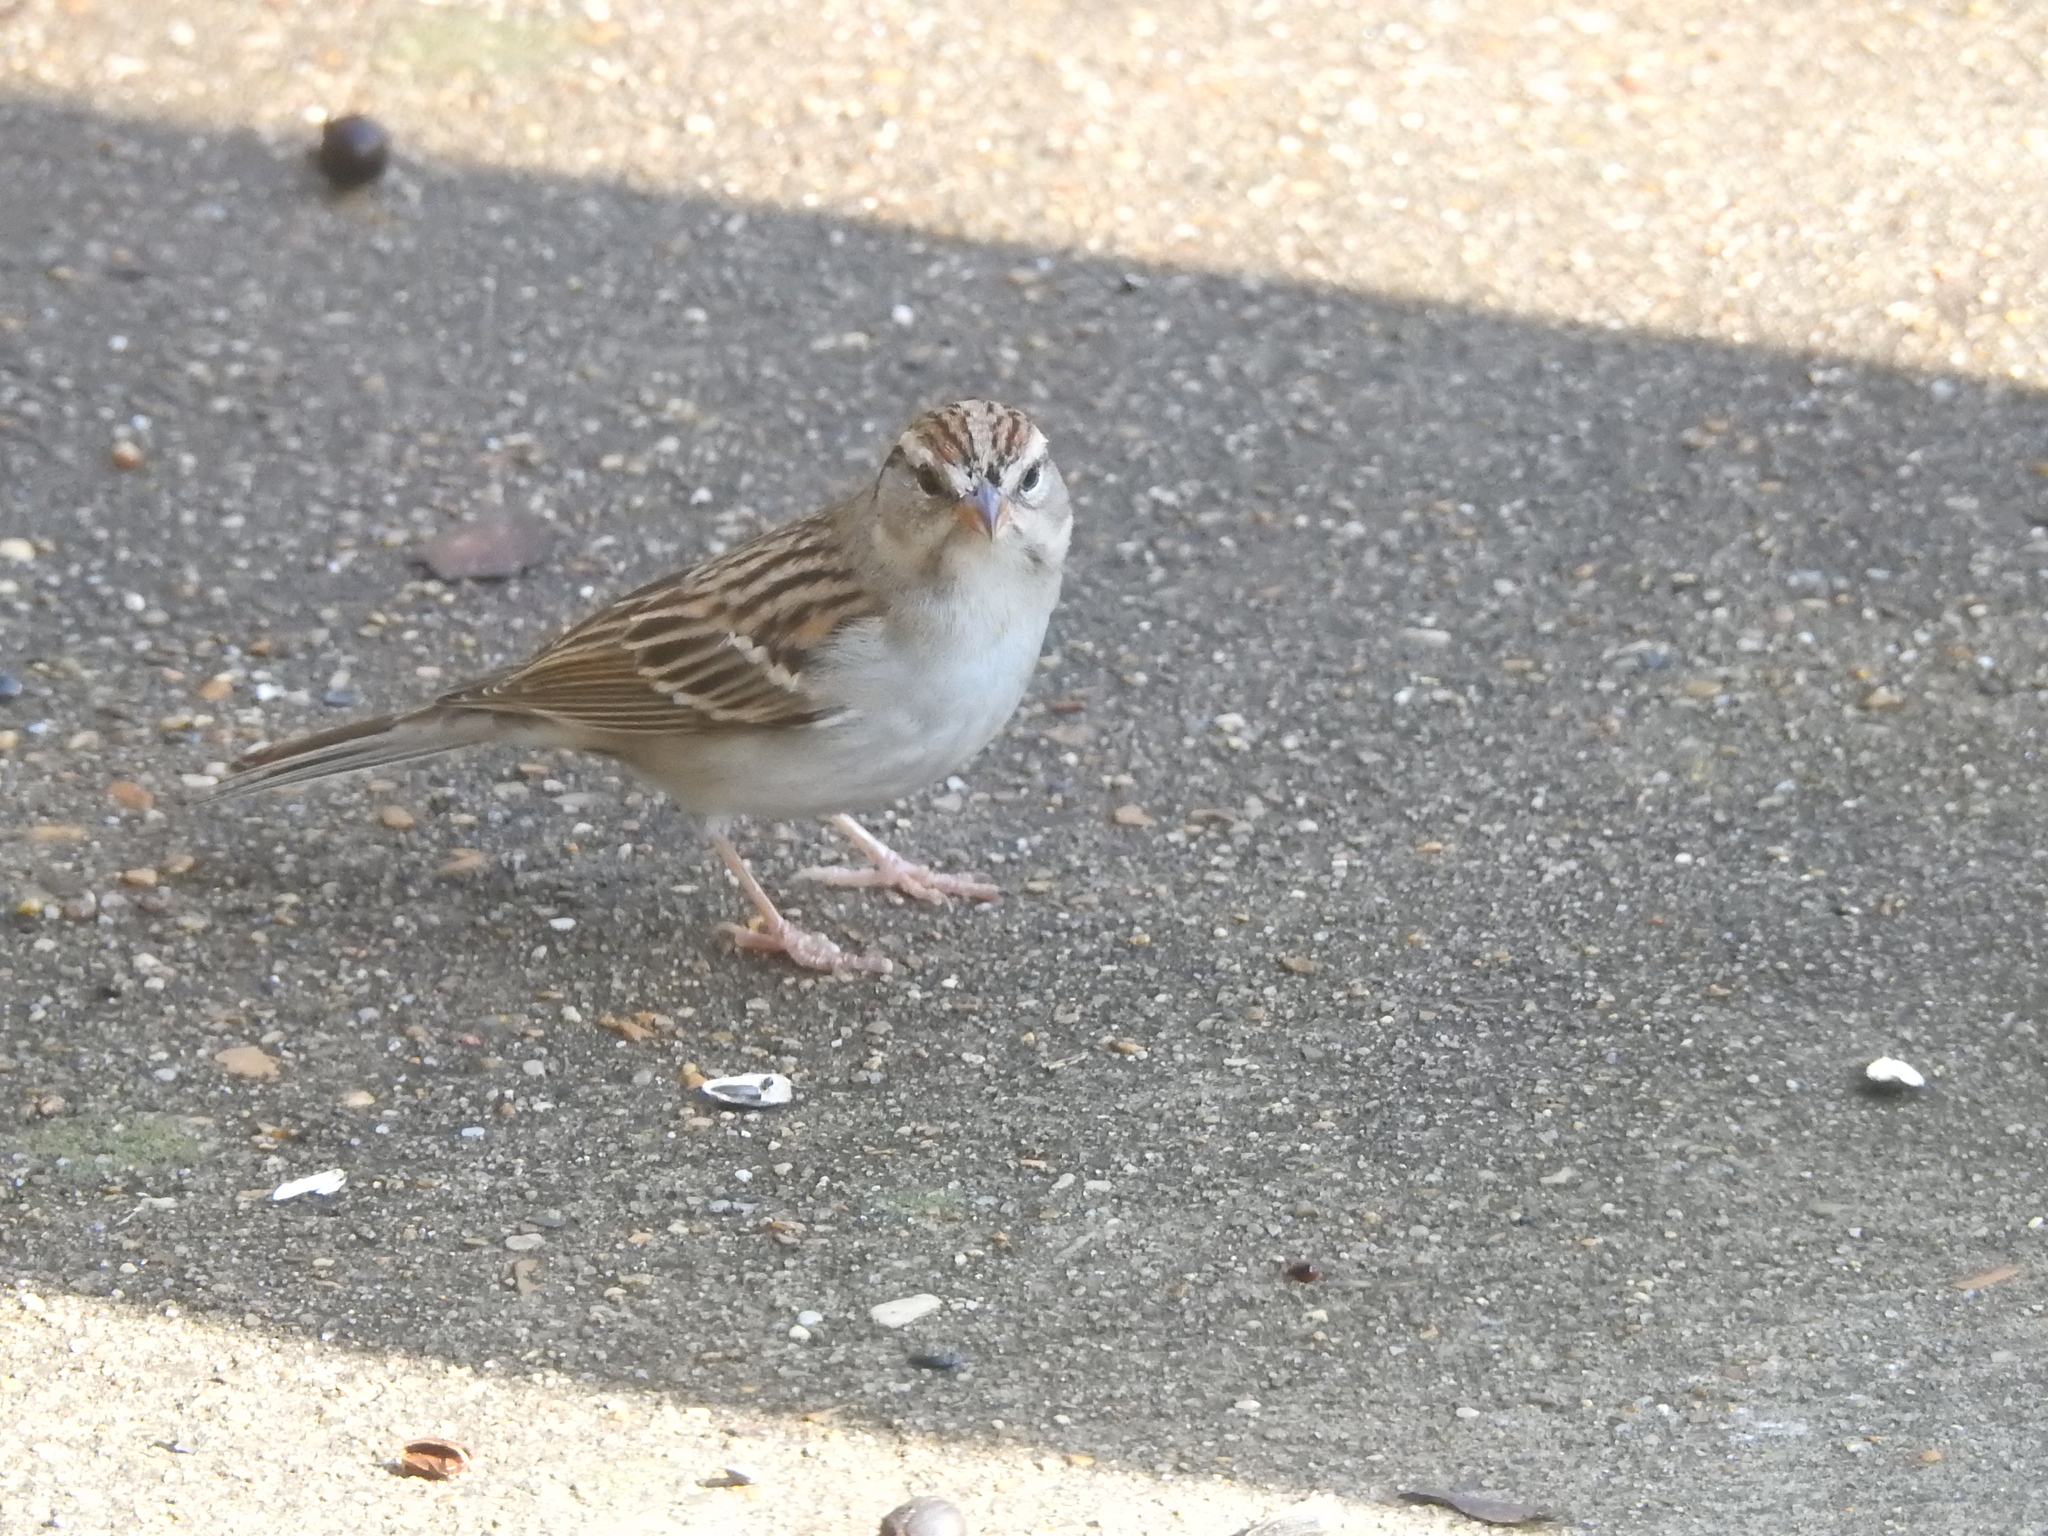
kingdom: Animalia
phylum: Chordata
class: Aves
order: Passeriformes
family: Passerellidae
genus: Spizella
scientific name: Spizella passerina
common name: Chipping sparrow
